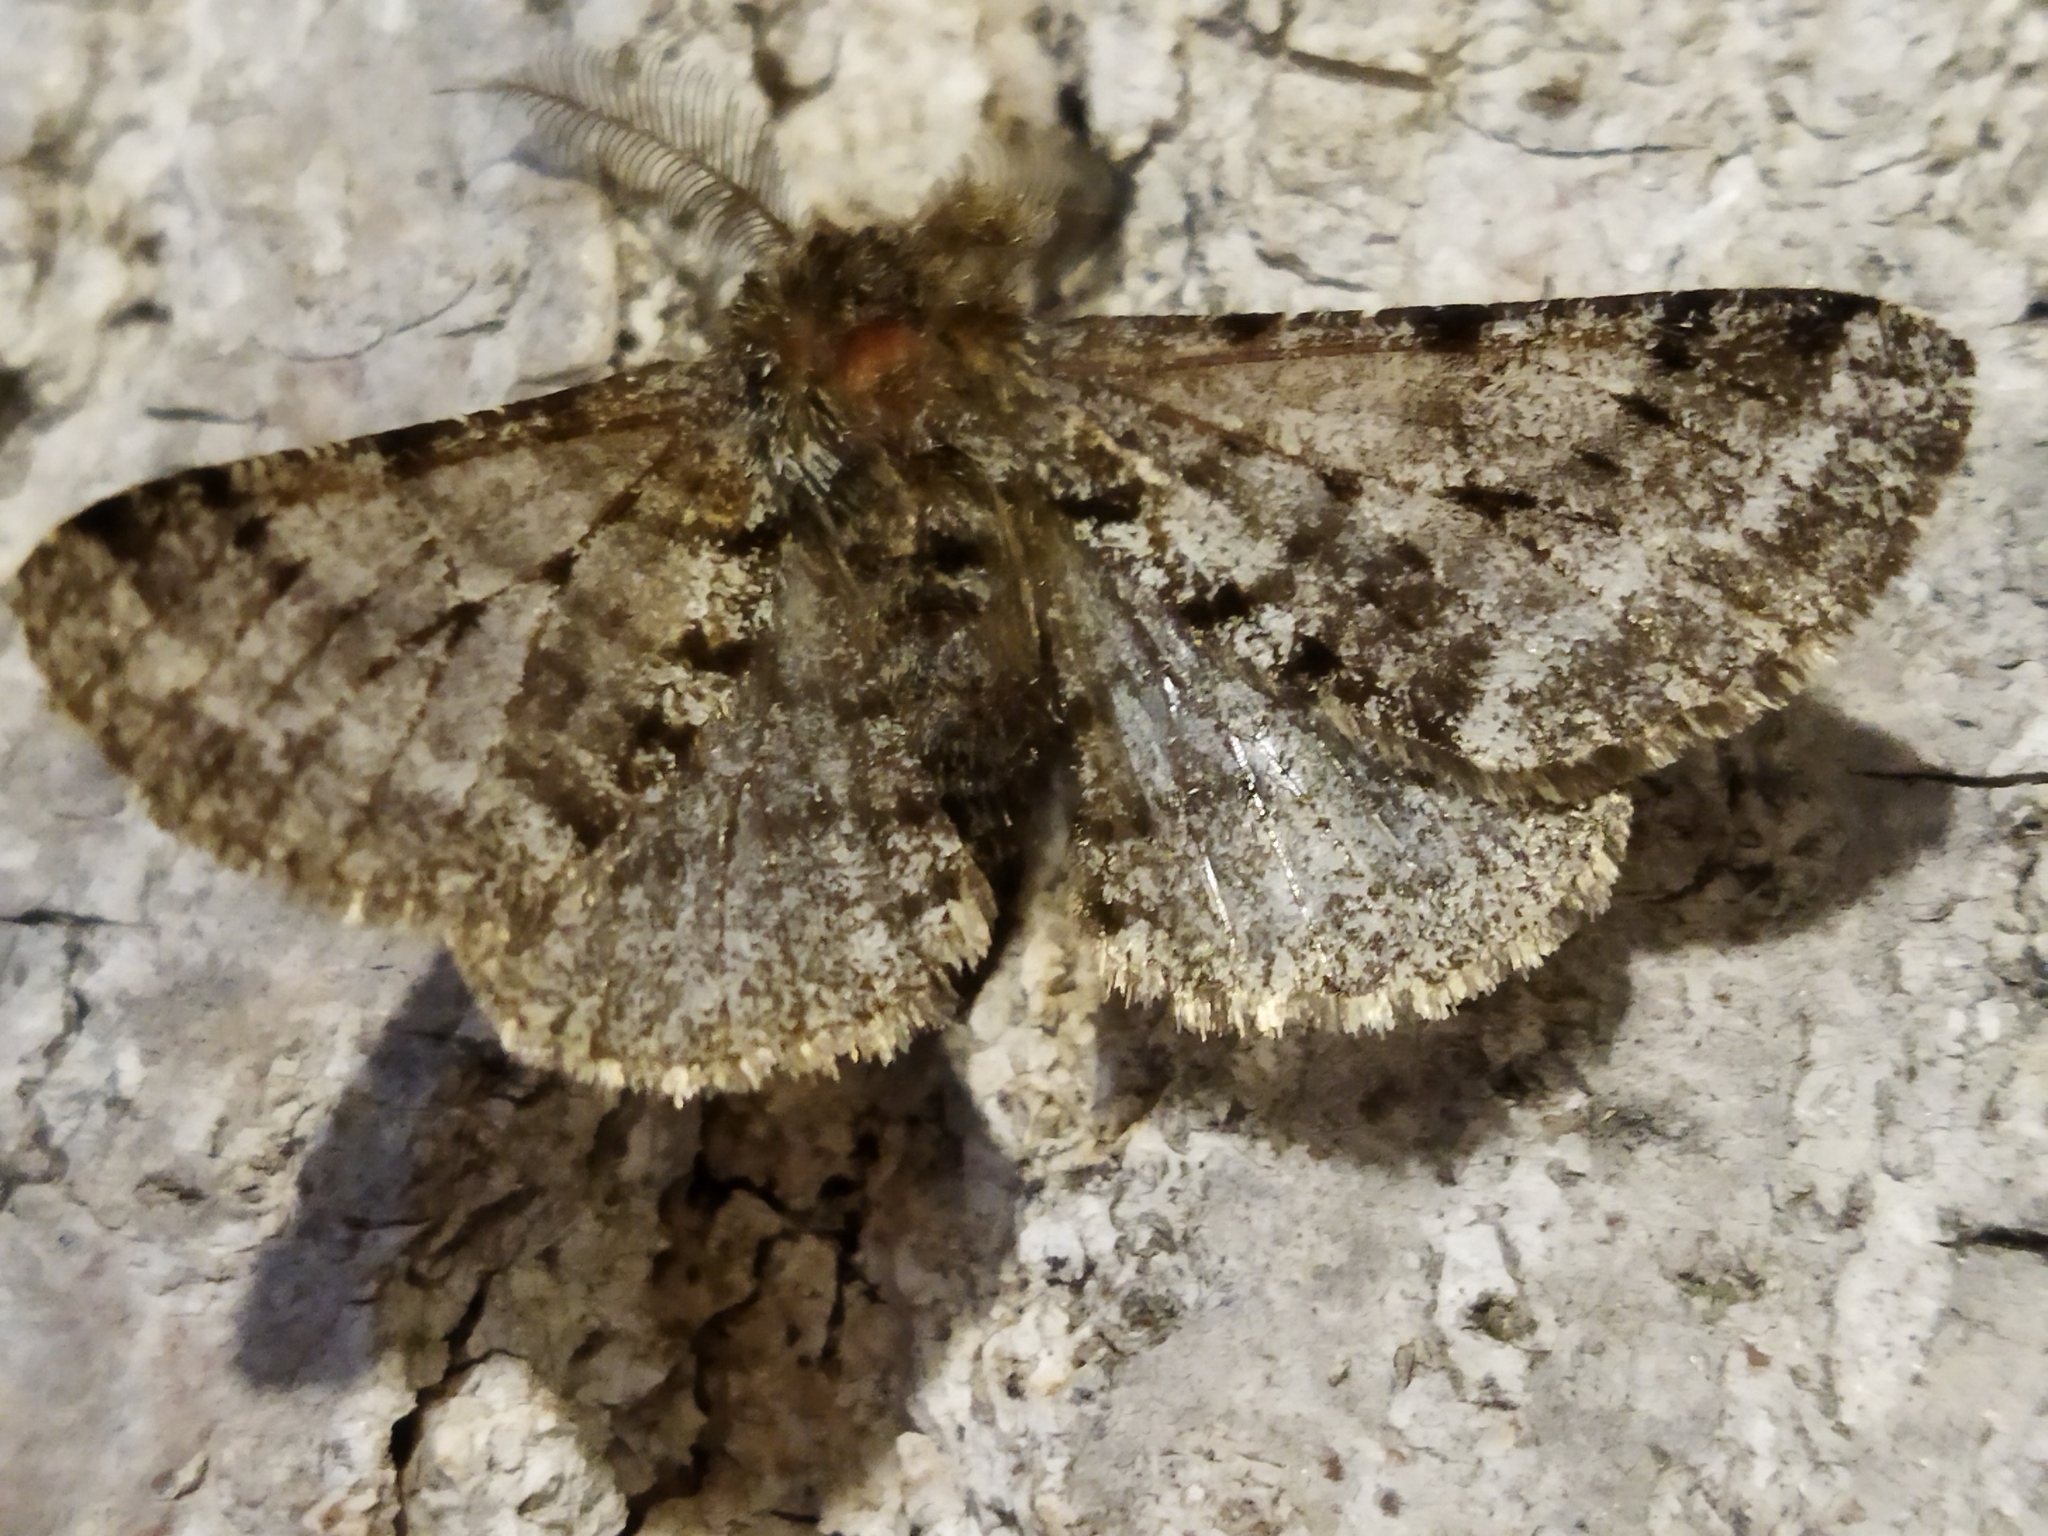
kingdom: Animalia
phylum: Arthropoda
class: Insecta
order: Lepidoptera
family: Geometridae
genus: Lycia
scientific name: Lycia hirtaria
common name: Brindled beauty
